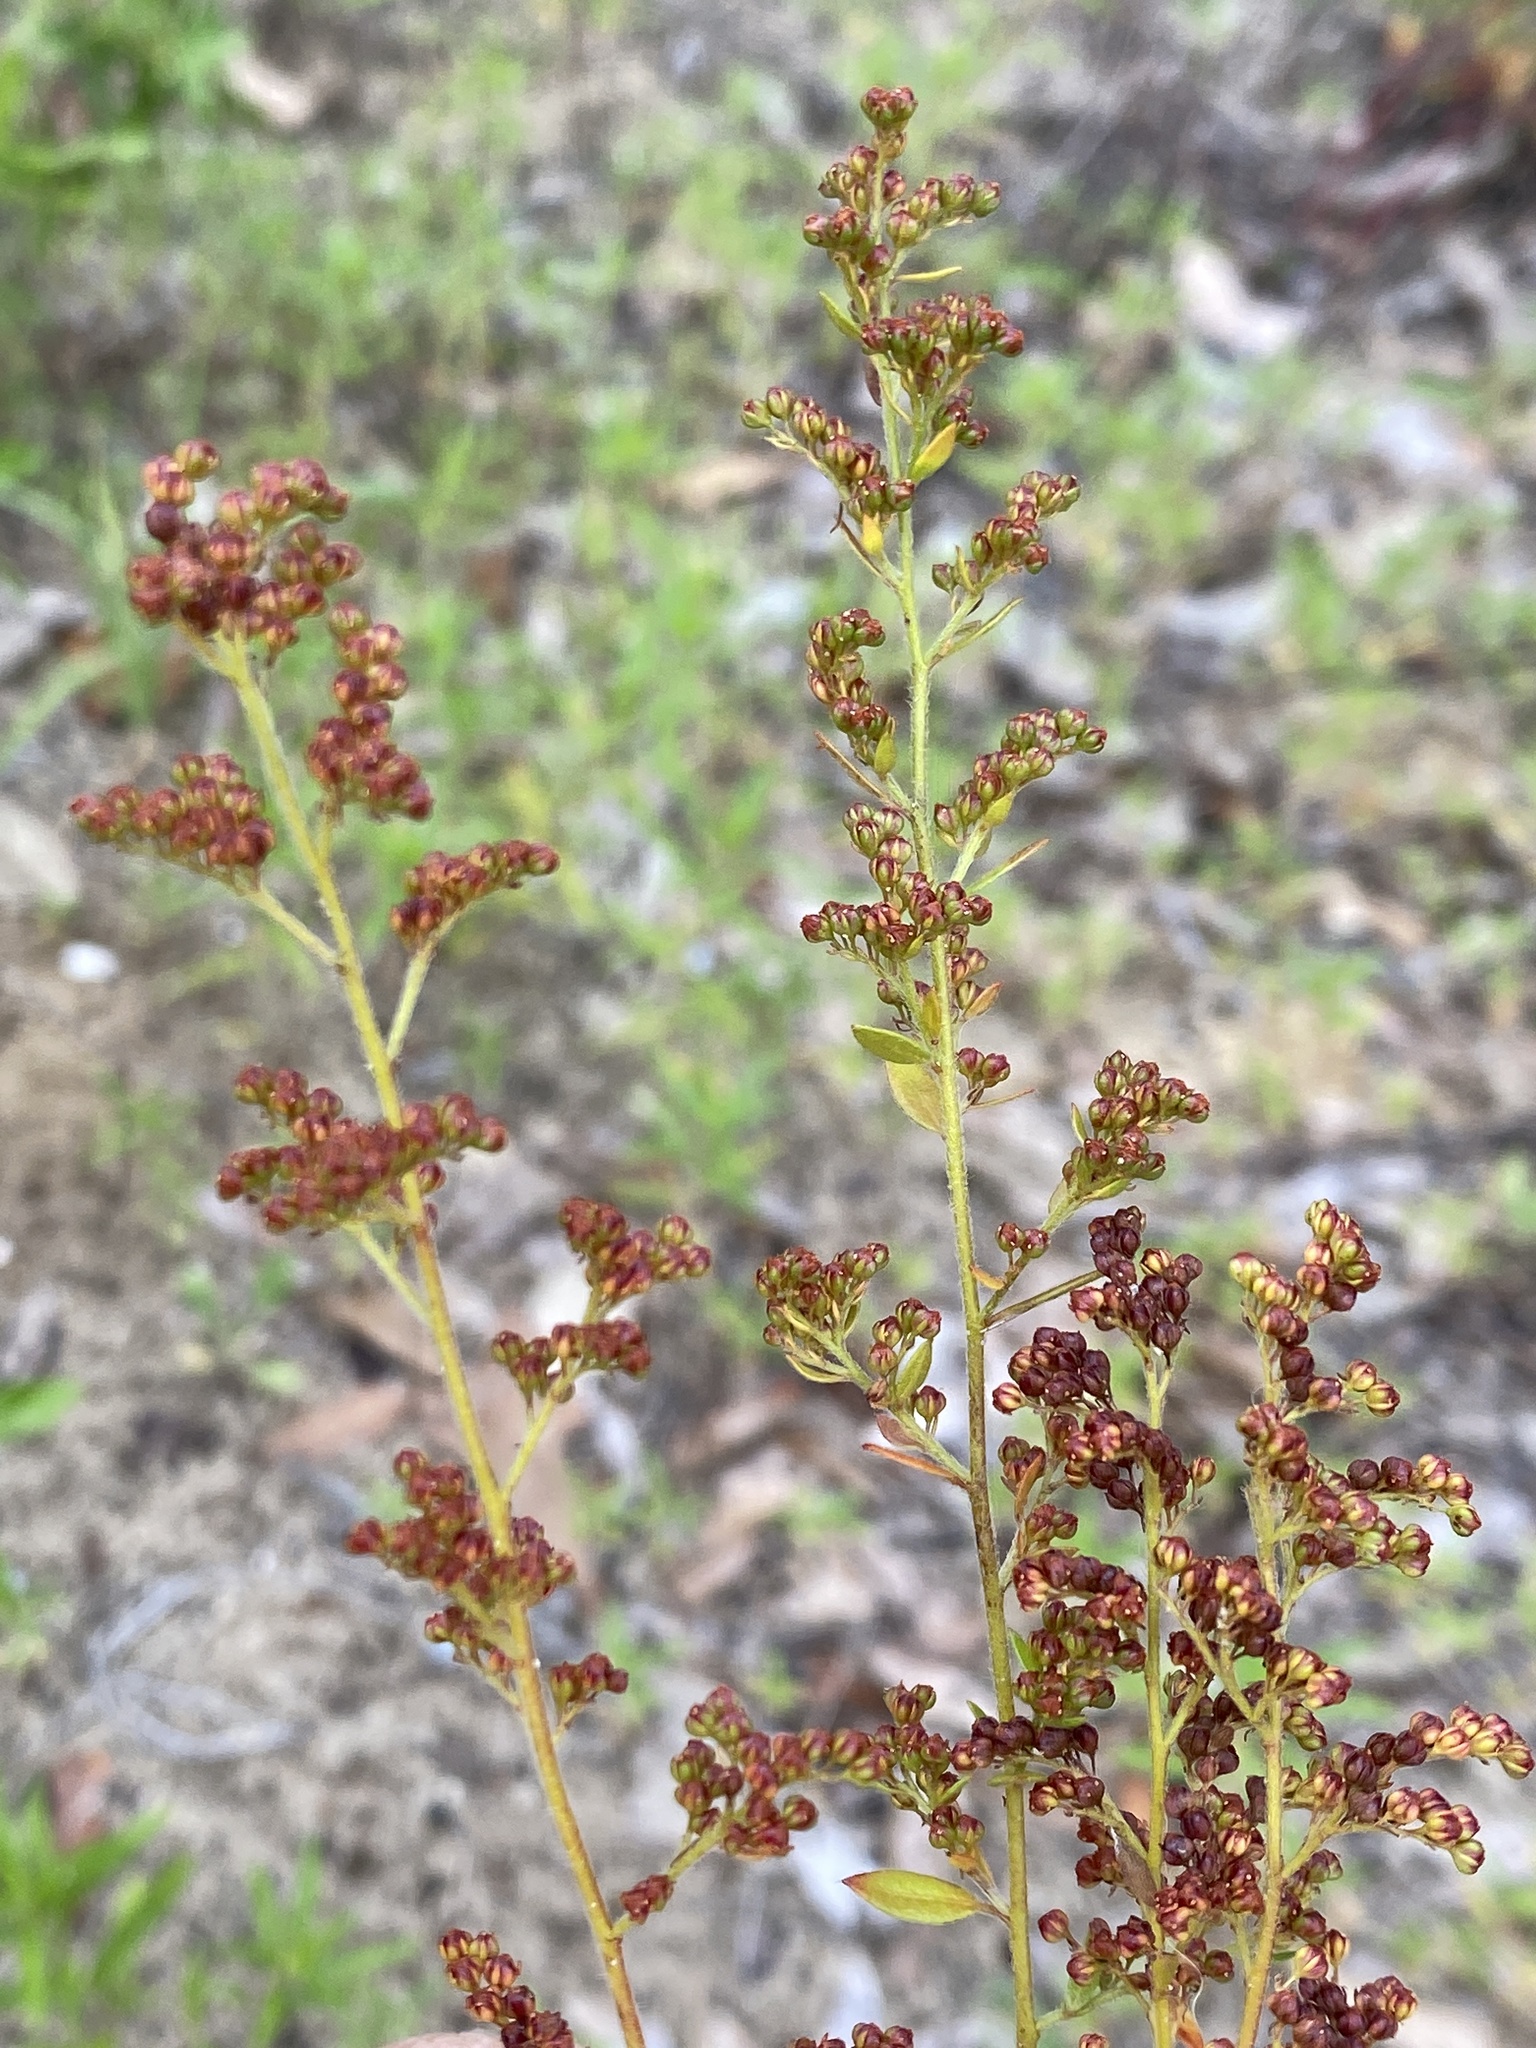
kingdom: Plantae
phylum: Tracheophyta
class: Magnoliopsida
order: Malvales
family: Cistaceae
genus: Lechea
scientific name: Lechea mucronata
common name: Hairy pinweed
